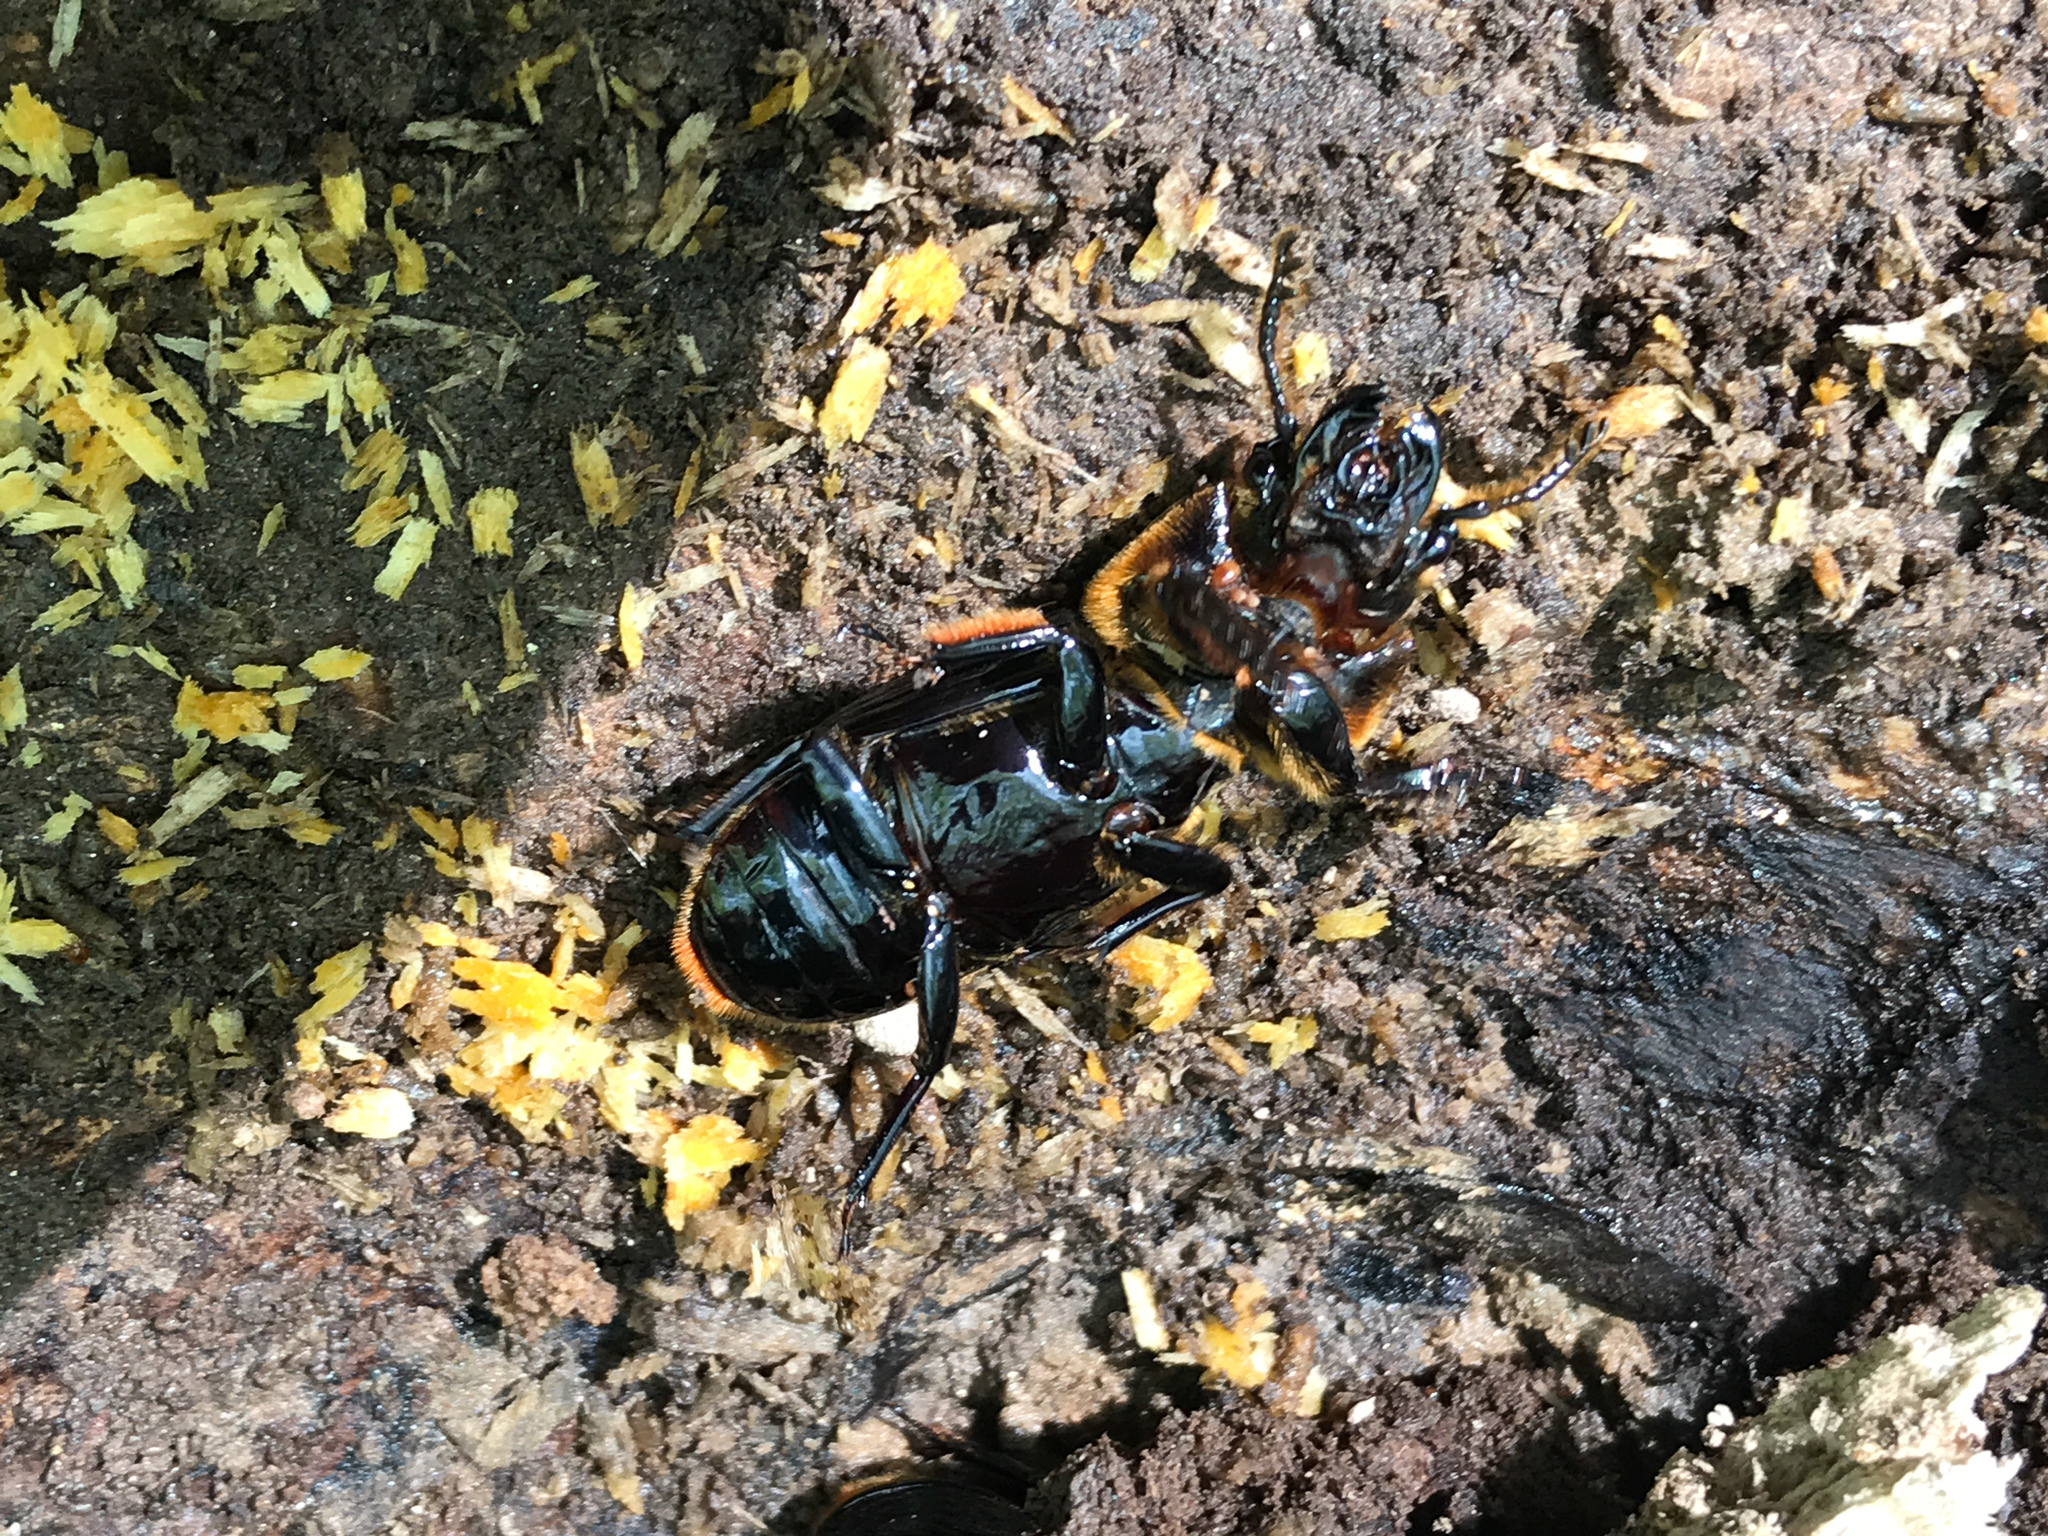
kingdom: Animalia
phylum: Arthropoda
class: Insecta
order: Coleoptera
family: Passalidae
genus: Odontotaenius
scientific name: Odontotaenius disjunctus
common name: Patent leather beetle
